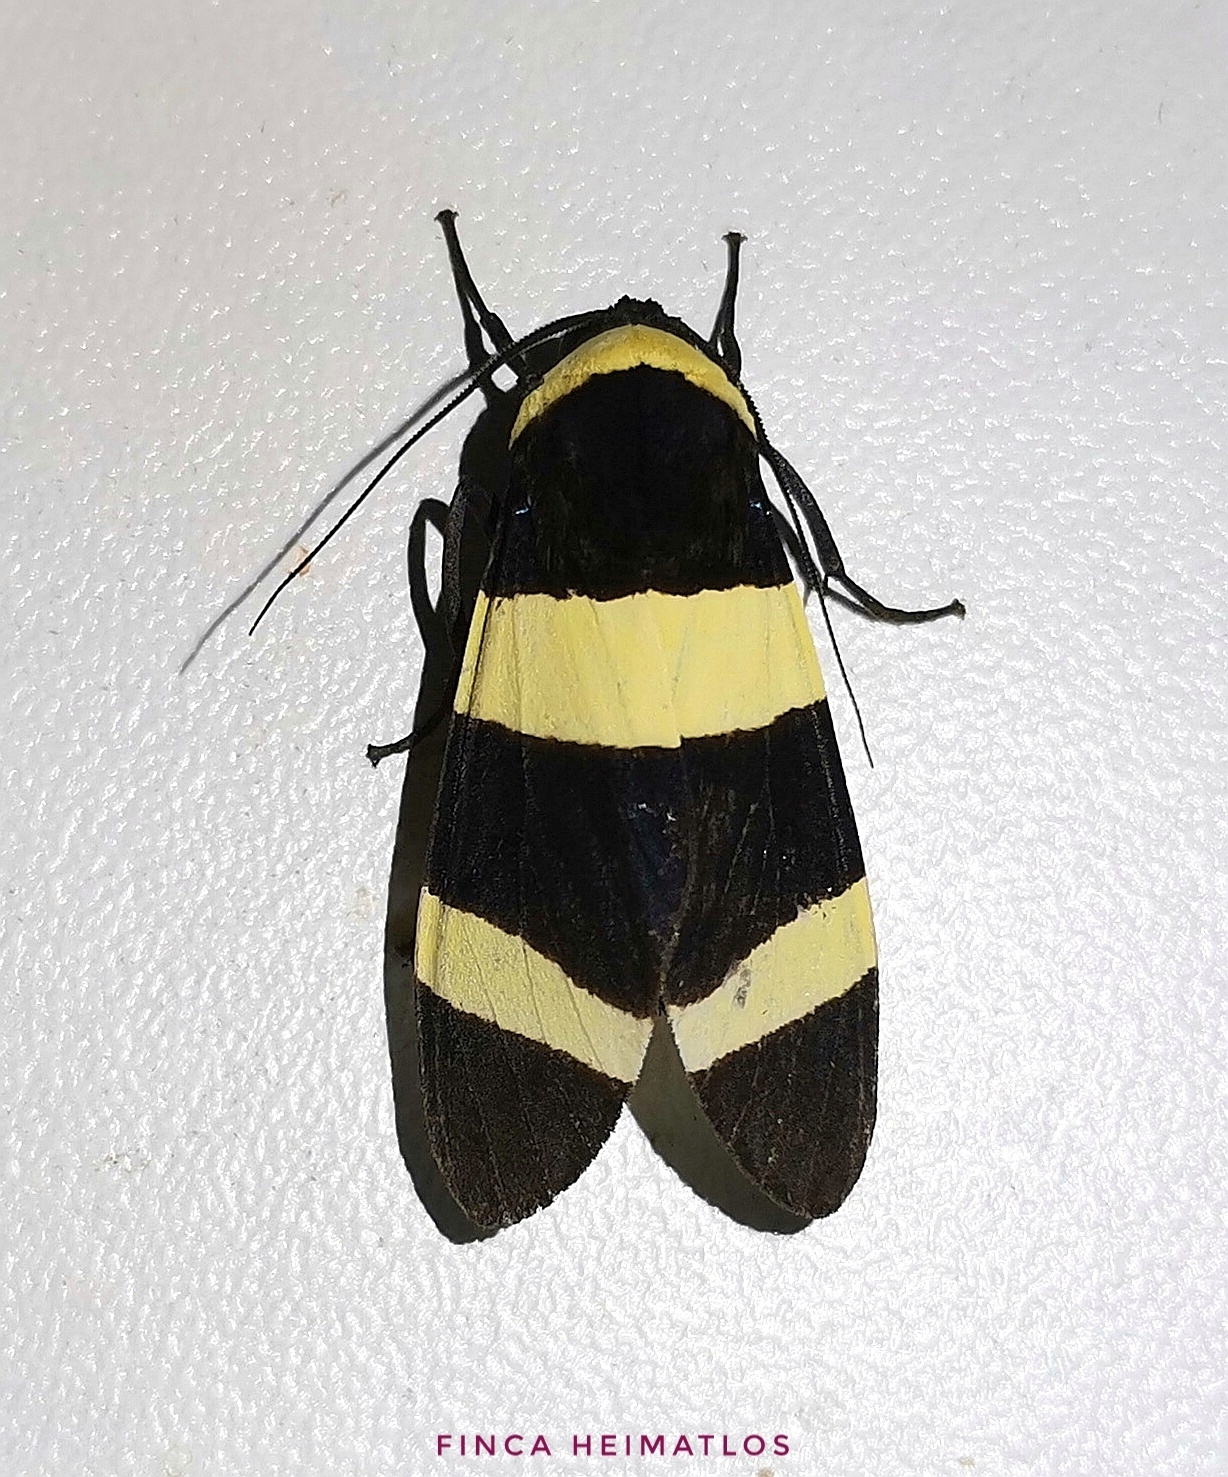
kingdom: Animalia
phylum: Arthropoda
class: Insecta
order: Lepidoptera
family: Erebidae
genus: Viviennea
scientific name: Viviennea moma
